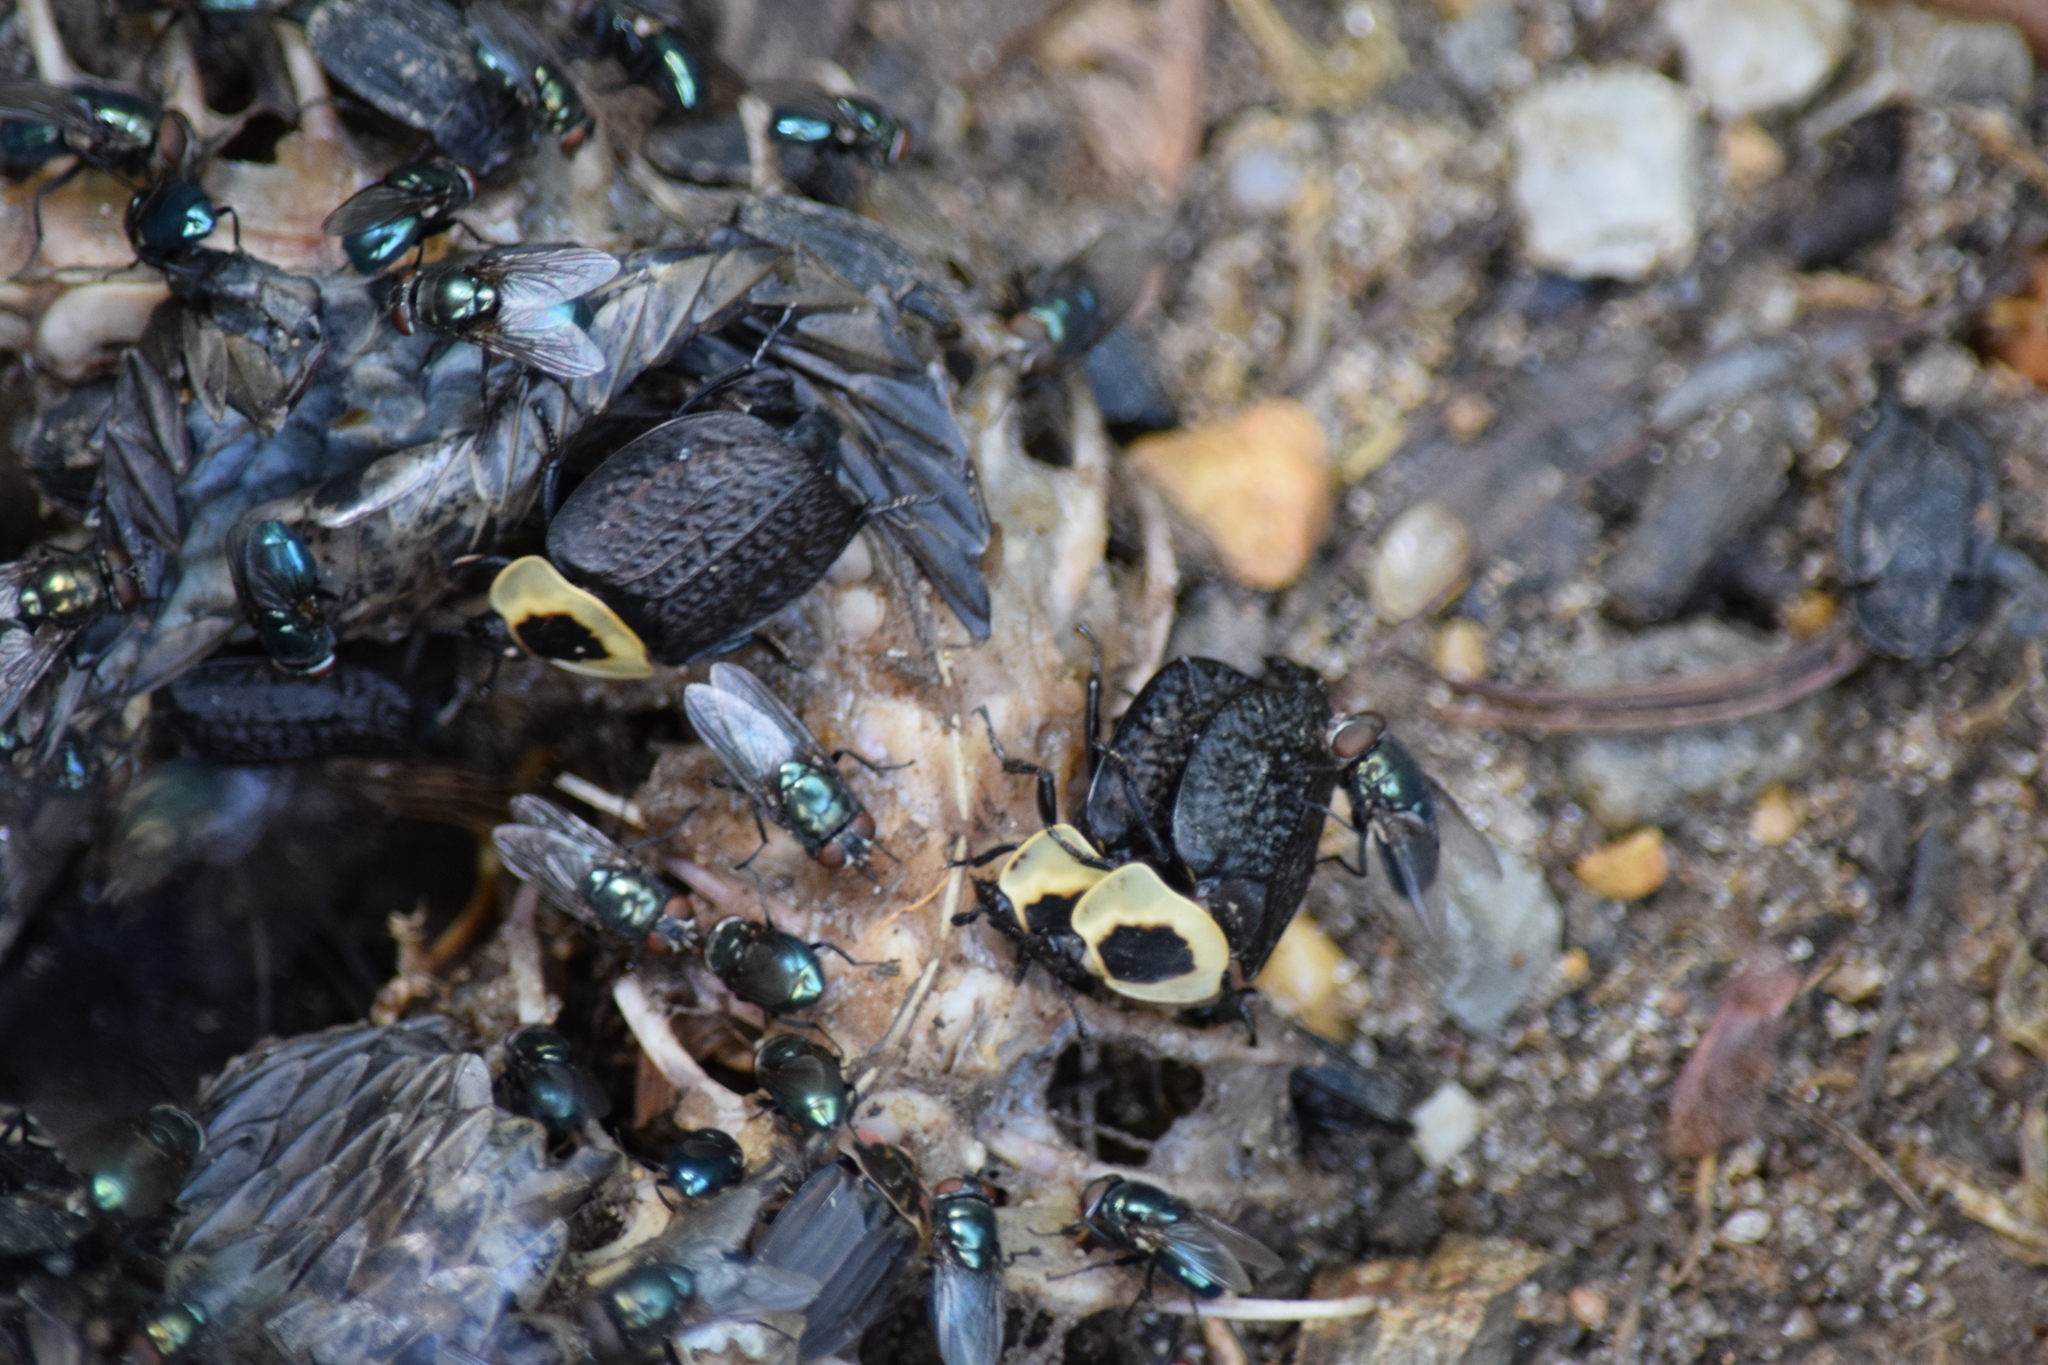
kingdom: Animalia
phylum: Arthropoda
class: Insecta
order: Coleoptera
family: Staphylinidae
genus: Necrophila
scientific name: Necrophila americana
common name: American carrion beetle
